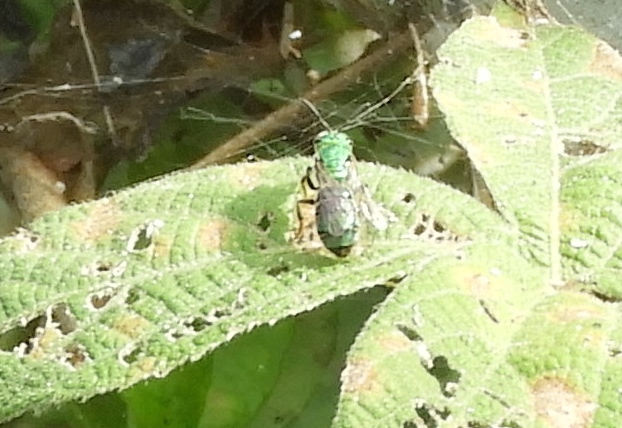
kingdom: Animalia
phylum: Arthropoda
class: Insecta
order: Hymenoptera
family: Halictidae
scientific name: Halictidae
